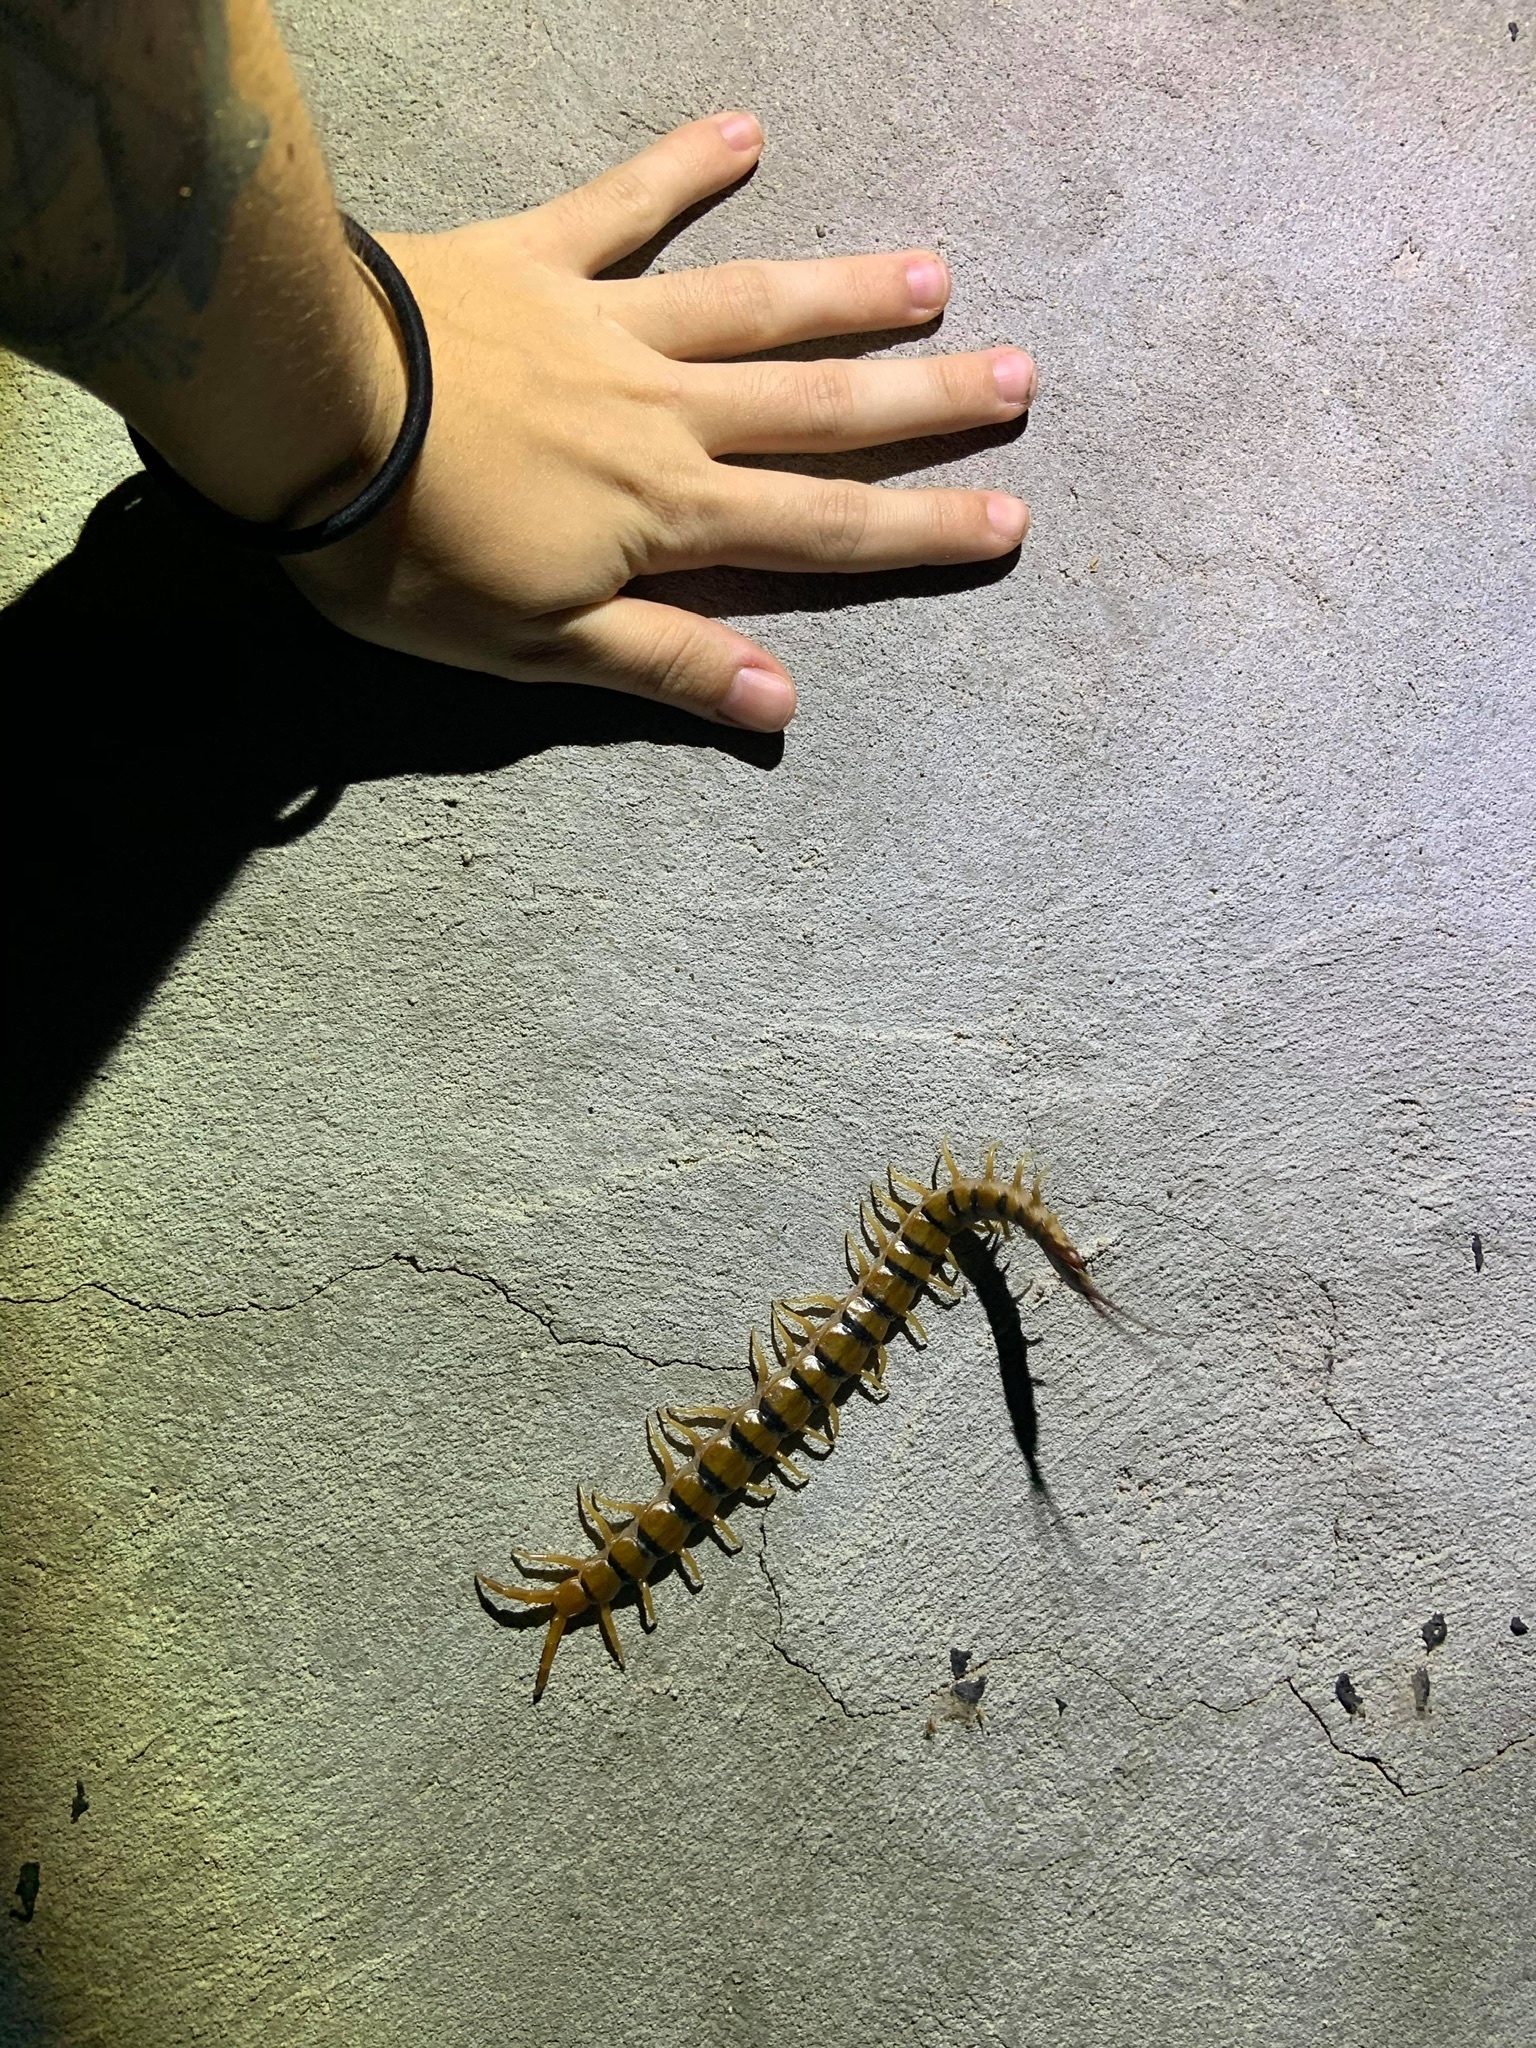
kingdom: Animalia
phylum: Arthropoda
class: Chilopoda
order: Scolopendromorpha
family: Scolopendridae
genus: Scolopendra
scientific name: Scolopendra polymorpha
